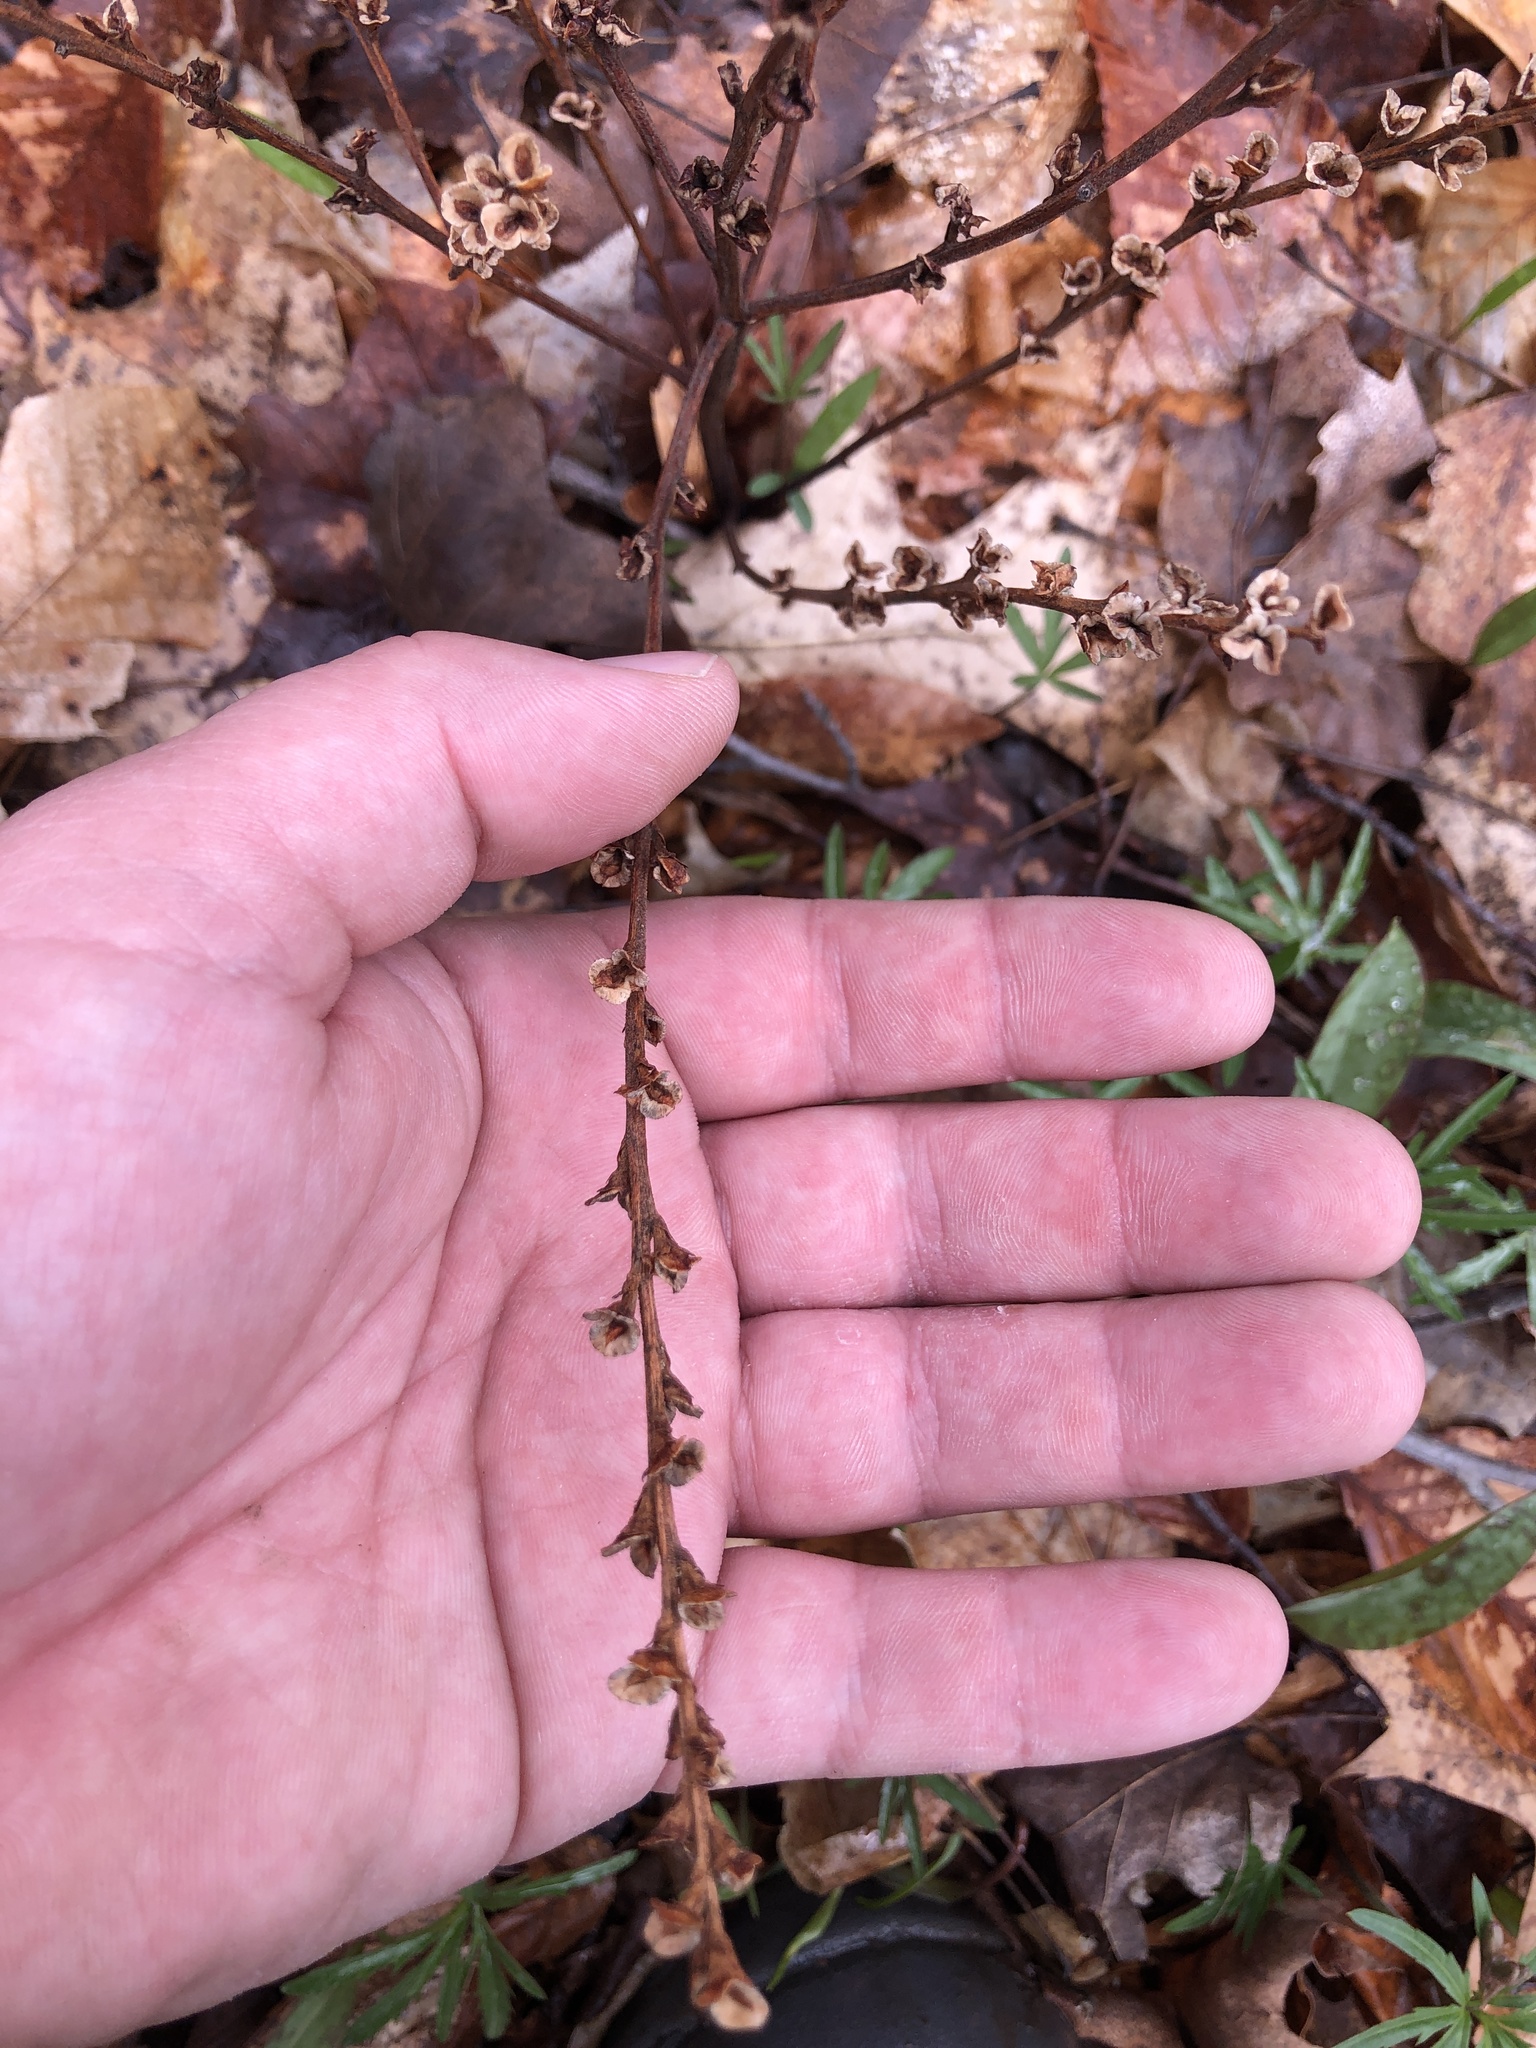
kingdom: Plantae
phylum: Tracheophyta
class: Magnoliopsida
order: Lamiales
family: Orobanchaceae
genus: Epifagus
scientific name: Epifagus virginiana
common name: Beechdrops
